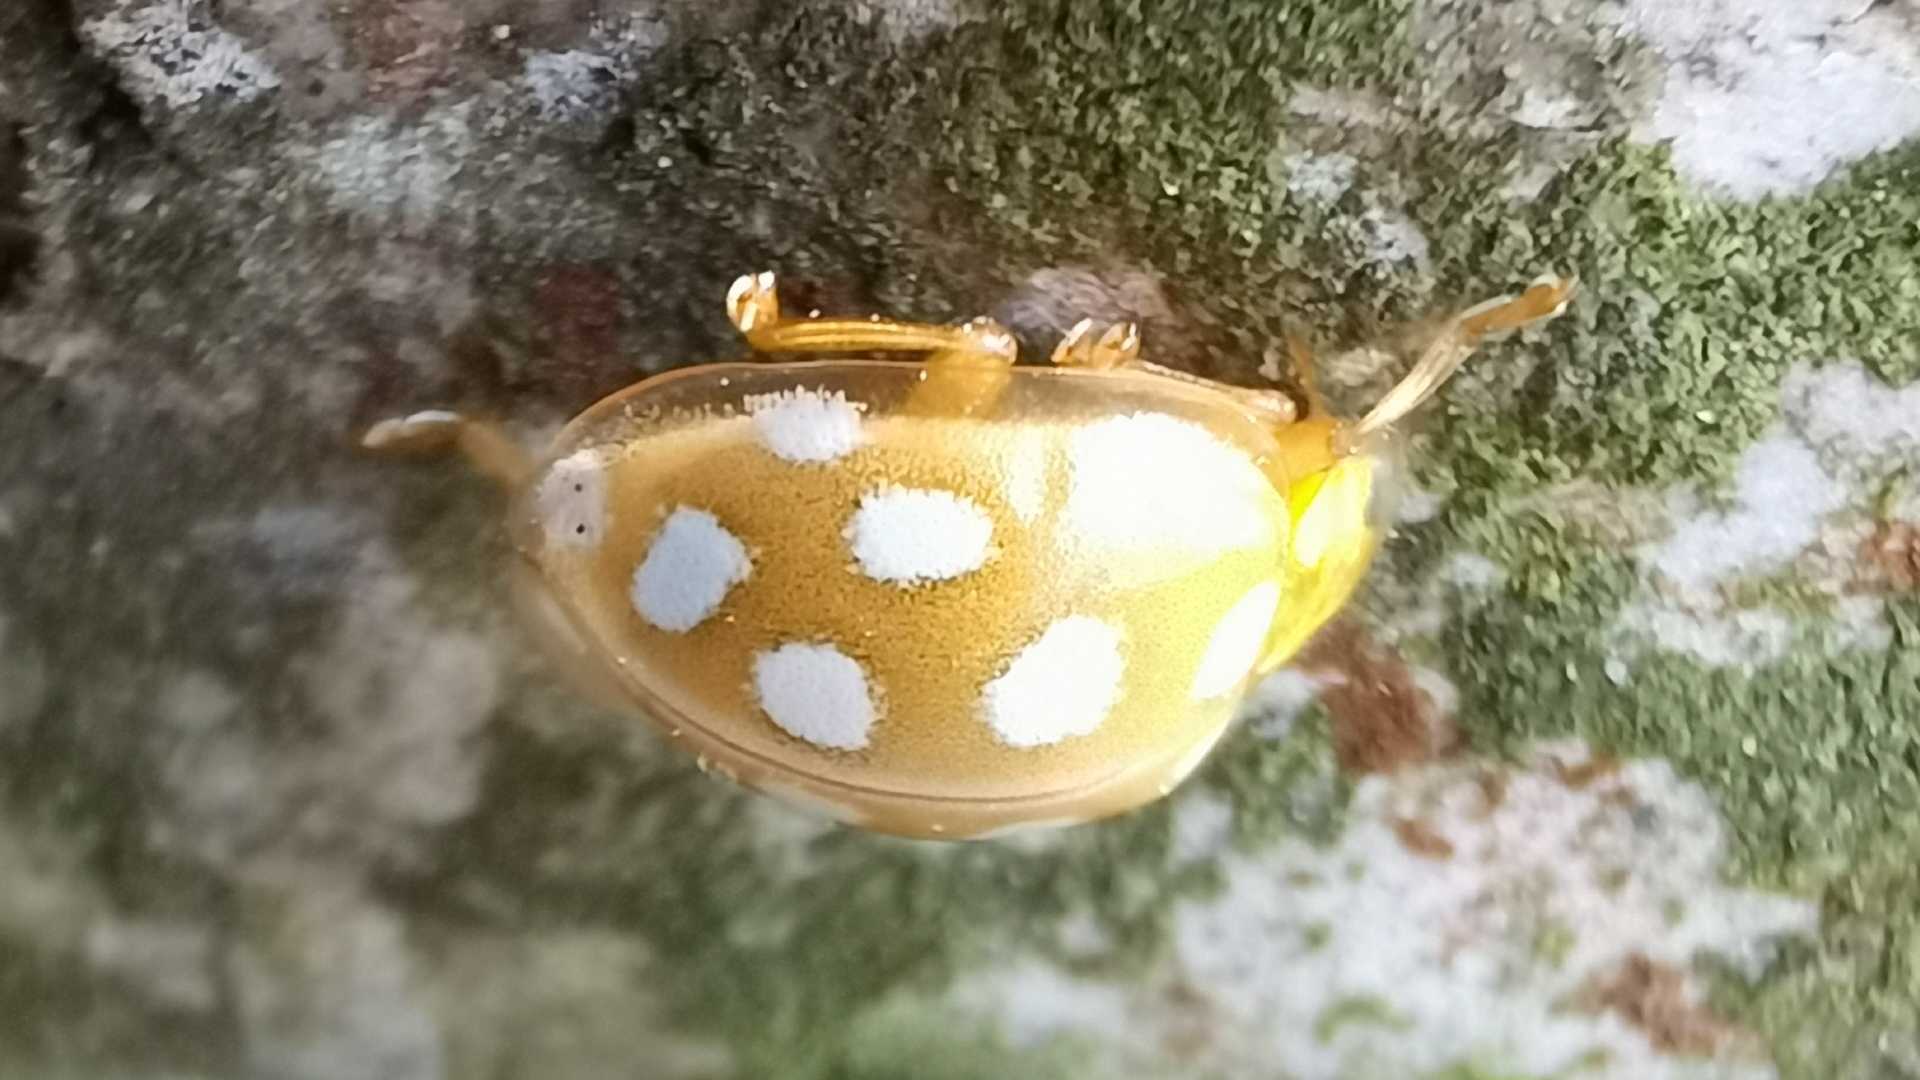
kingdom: Animalia
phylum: Arthropoda
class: Insecta
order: Coleoptera
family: Coccinellidae
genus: Halyzia
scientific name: Halyzia sedecimguttata
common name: Orange ladybird
